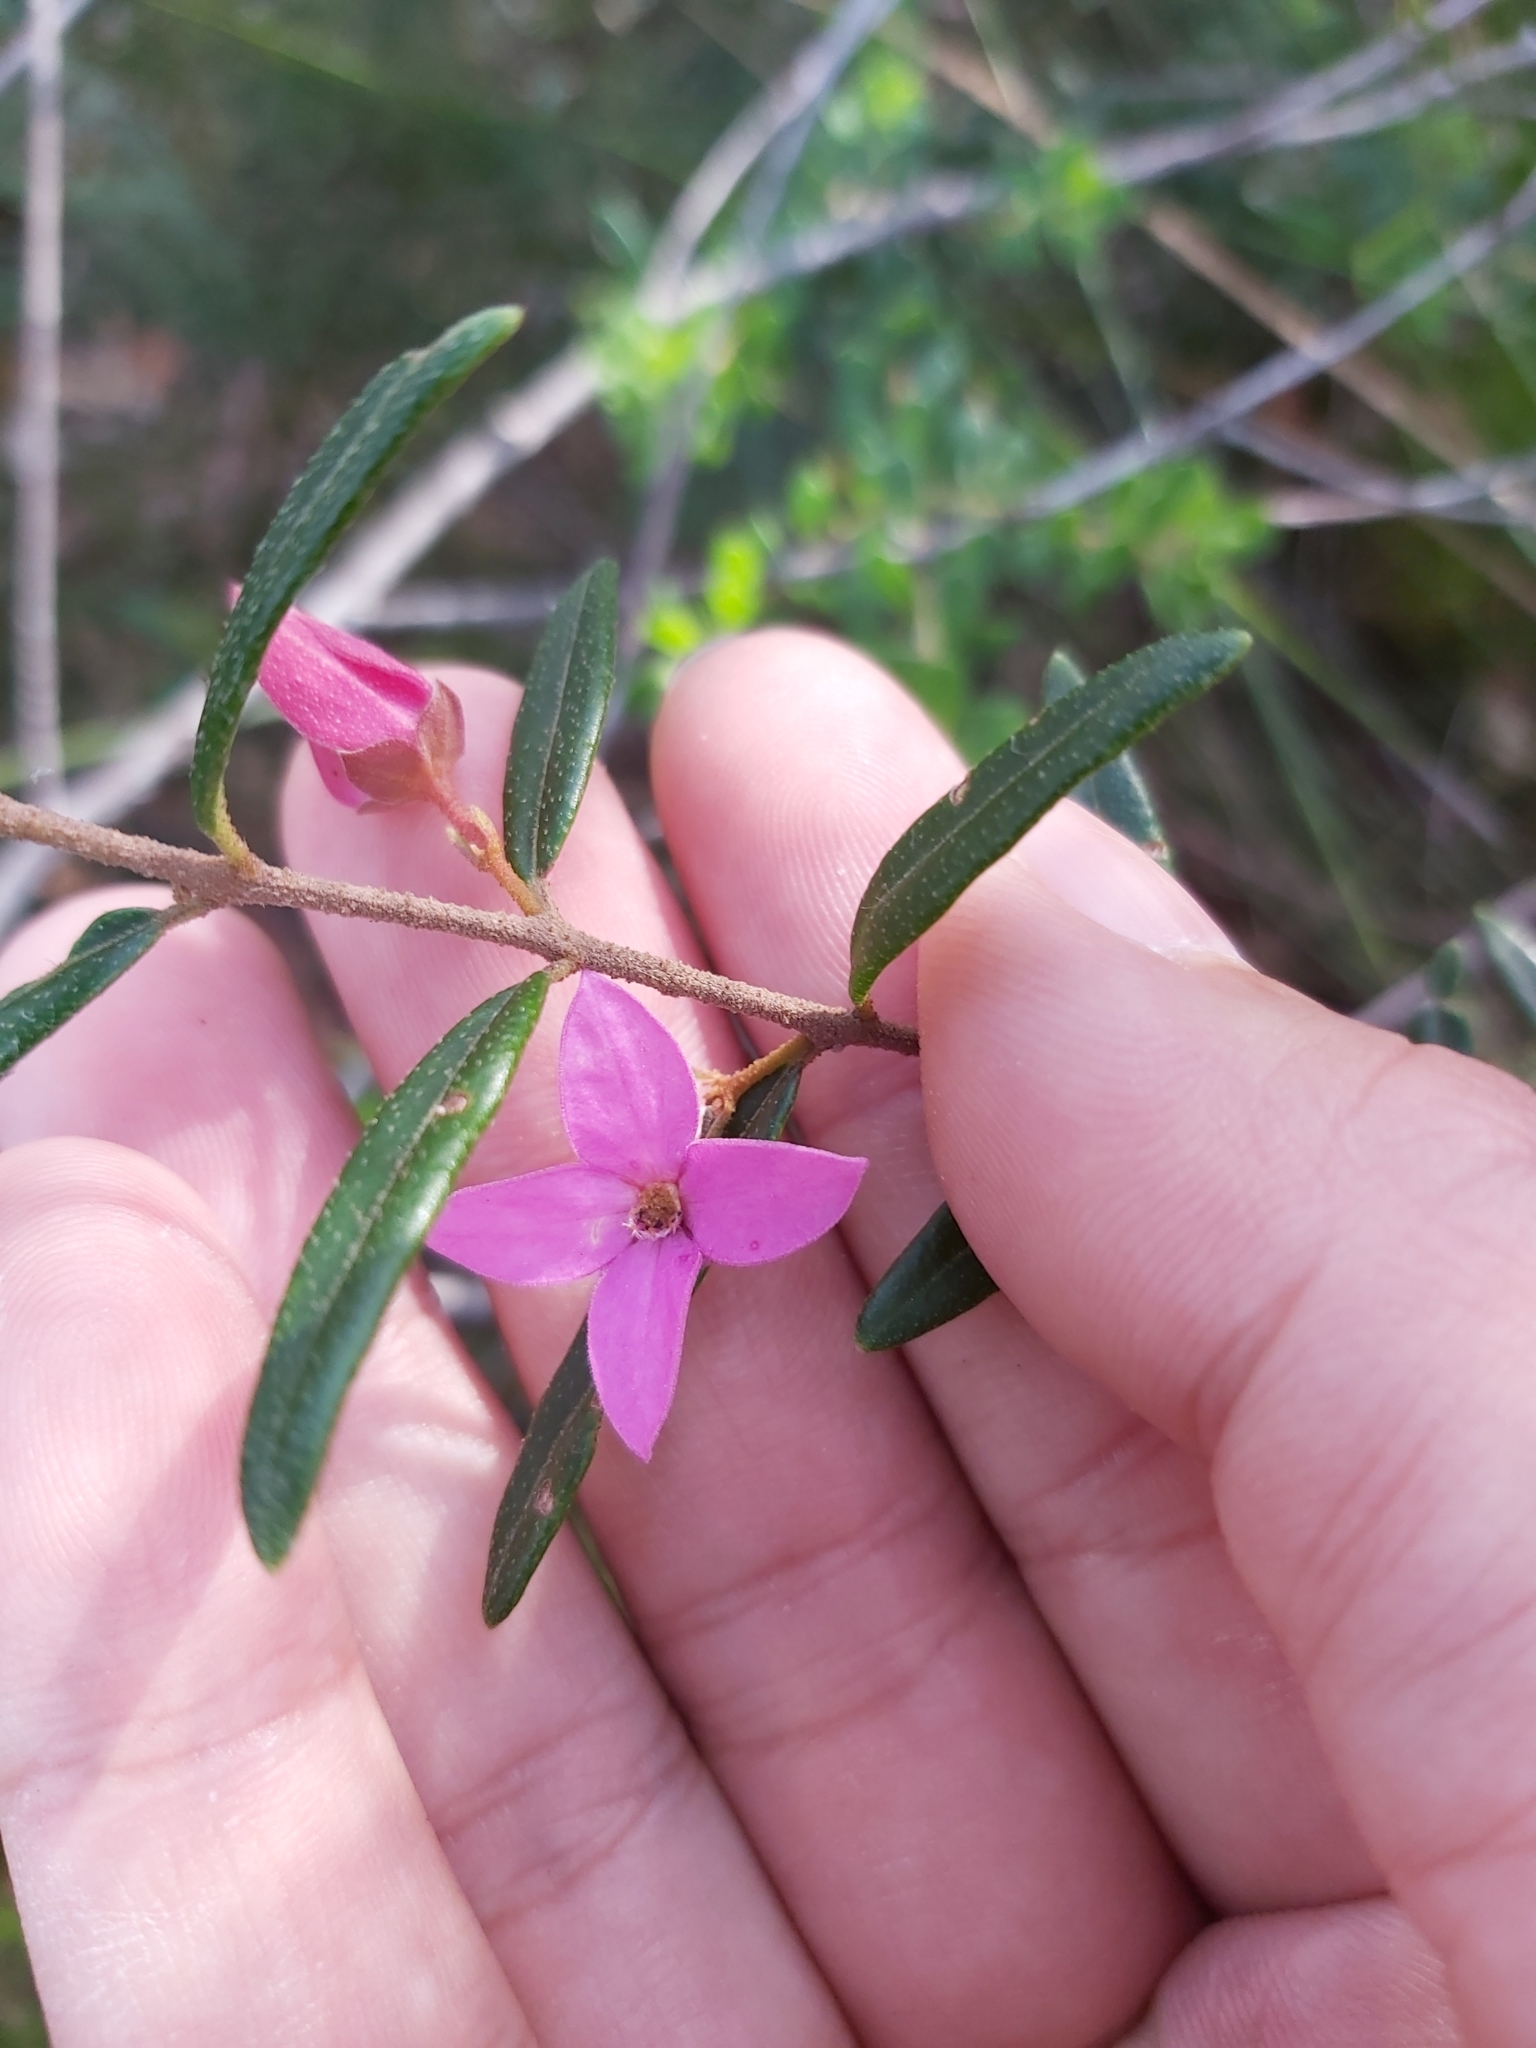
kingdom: Plantae
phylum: Tracheophyta
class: Magnoliopsida
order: Sapindales
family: Rutaceae
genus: Boronia
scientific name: Boronia ledifolia
